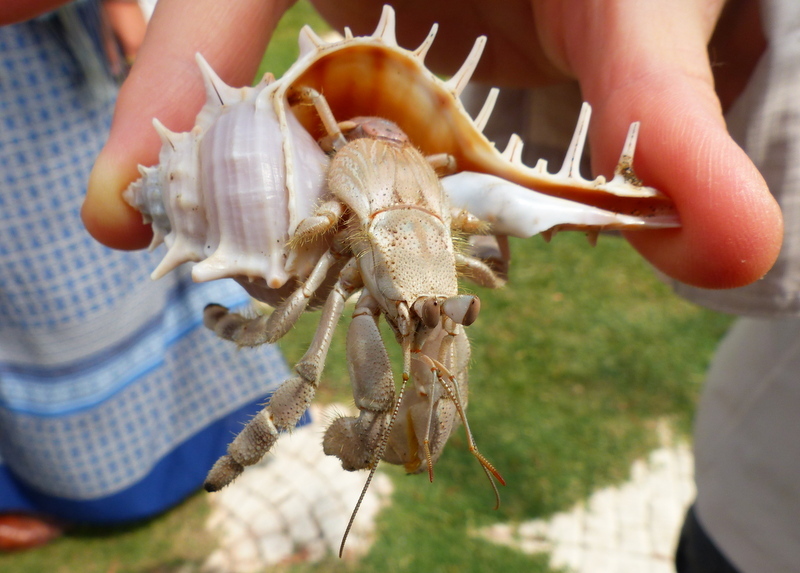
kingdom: Animalia
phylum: Arthropoda
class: Malacostraca
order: Decapoda
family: Coenobitidae
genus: Coenobita
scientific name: Coenobita scaevola
